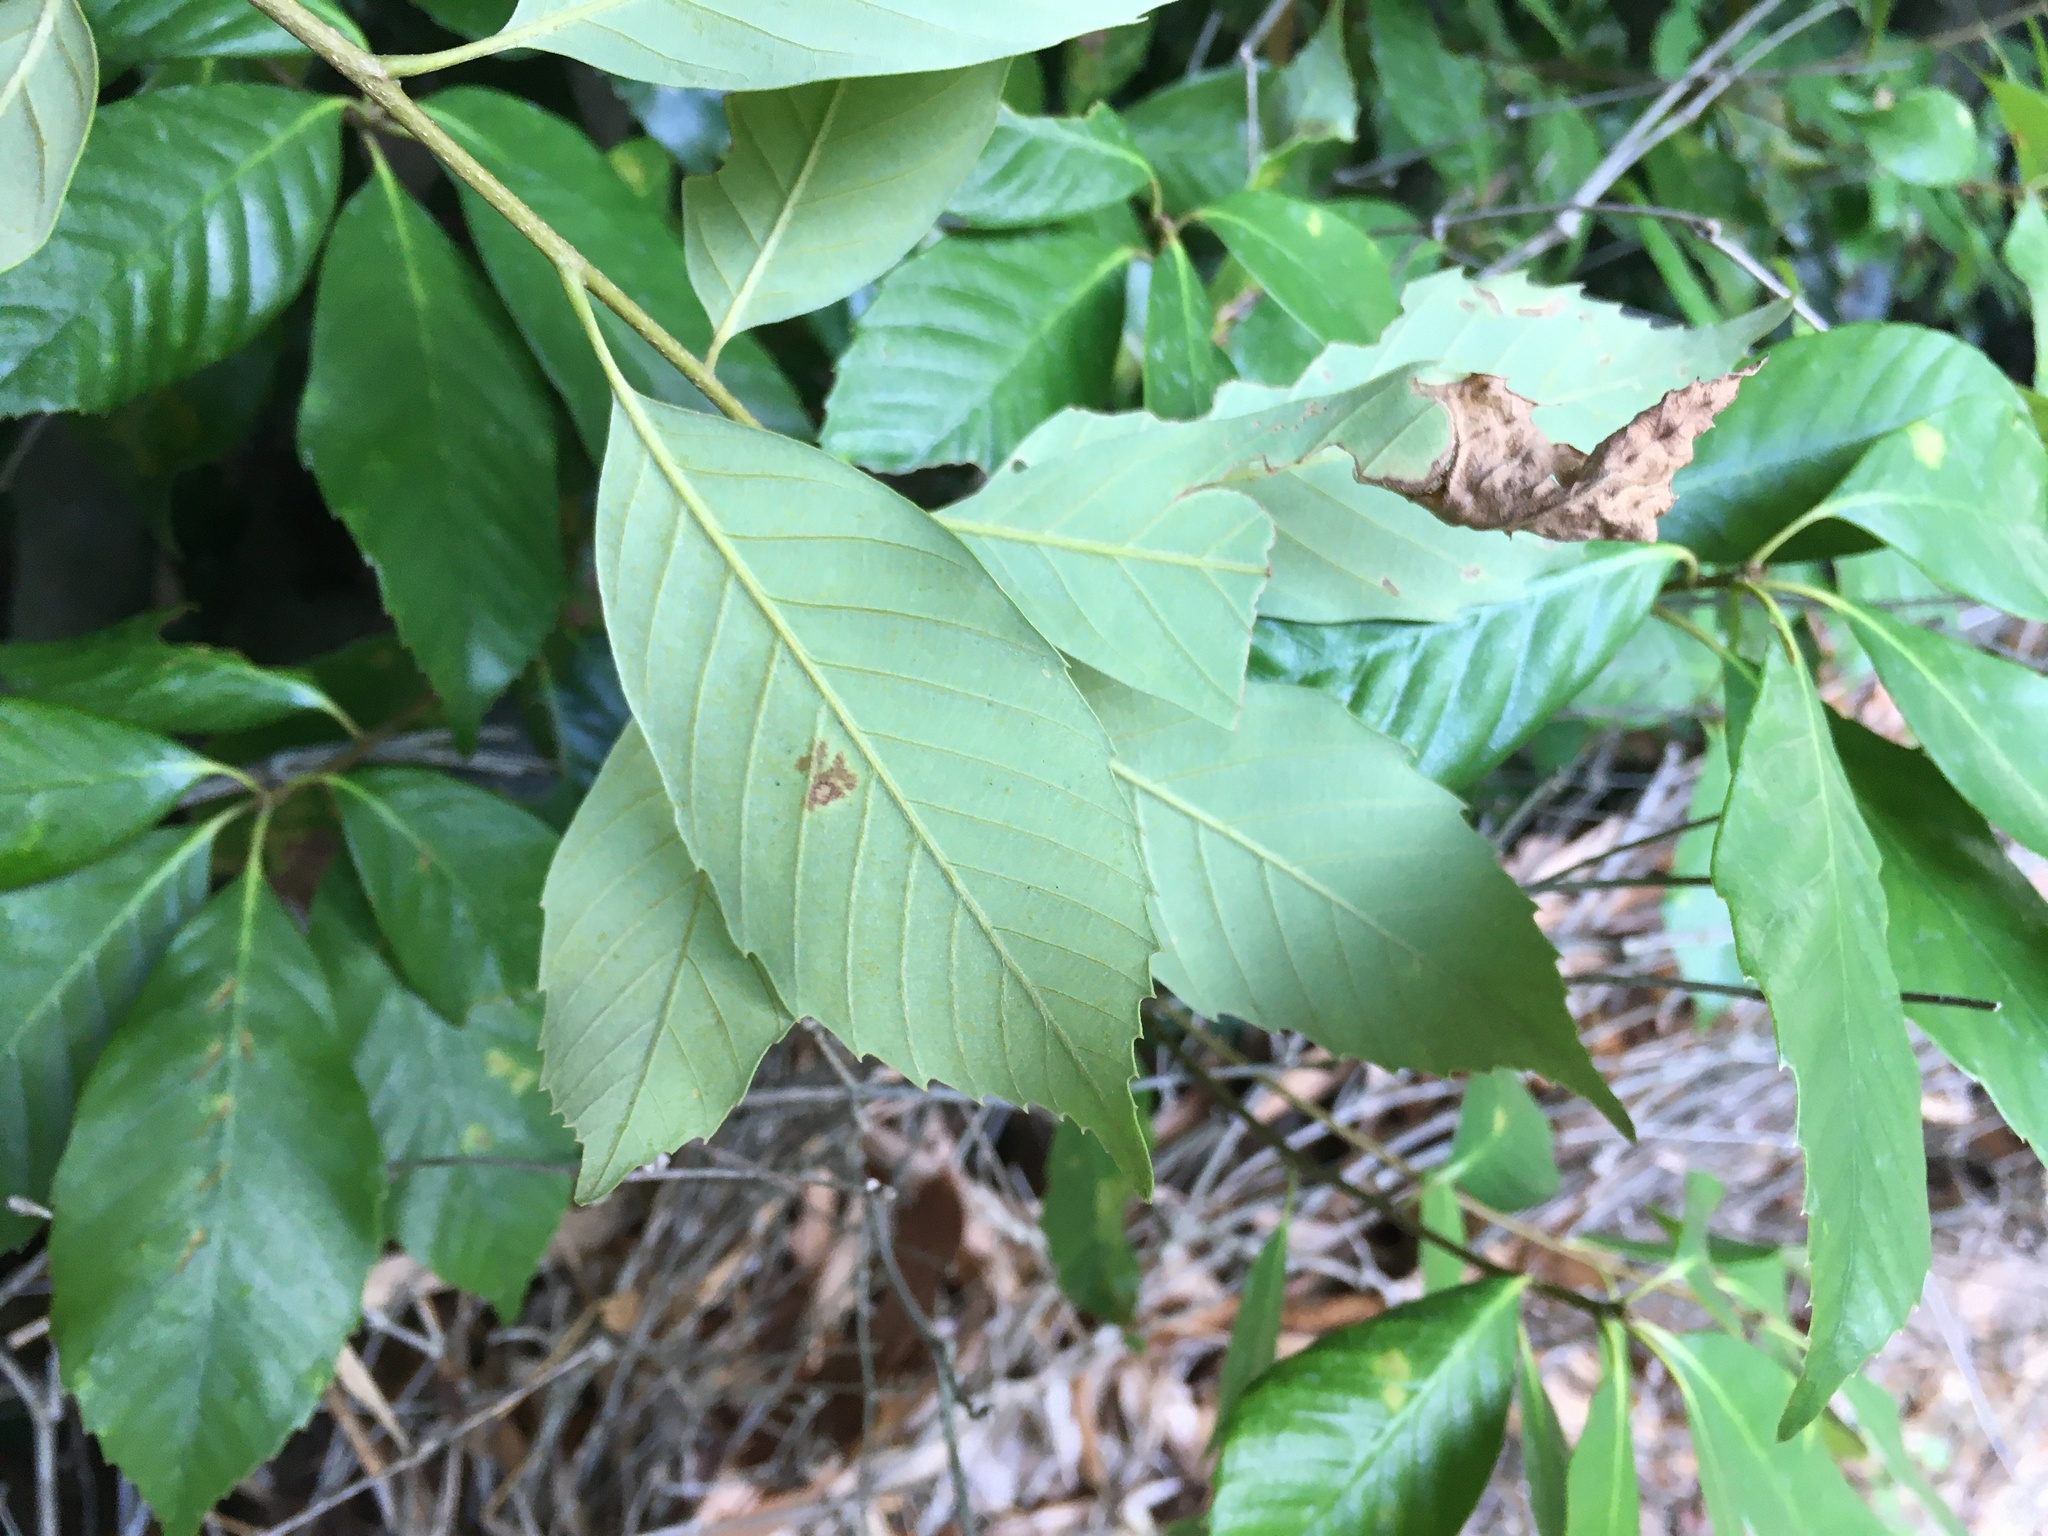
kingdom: Plantae
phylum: Tracheophyta
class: Magnoliopsida
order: Fagales
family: Fagaceae
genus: Quercus
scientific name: Quercus glauca
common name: Ring-cup oak
